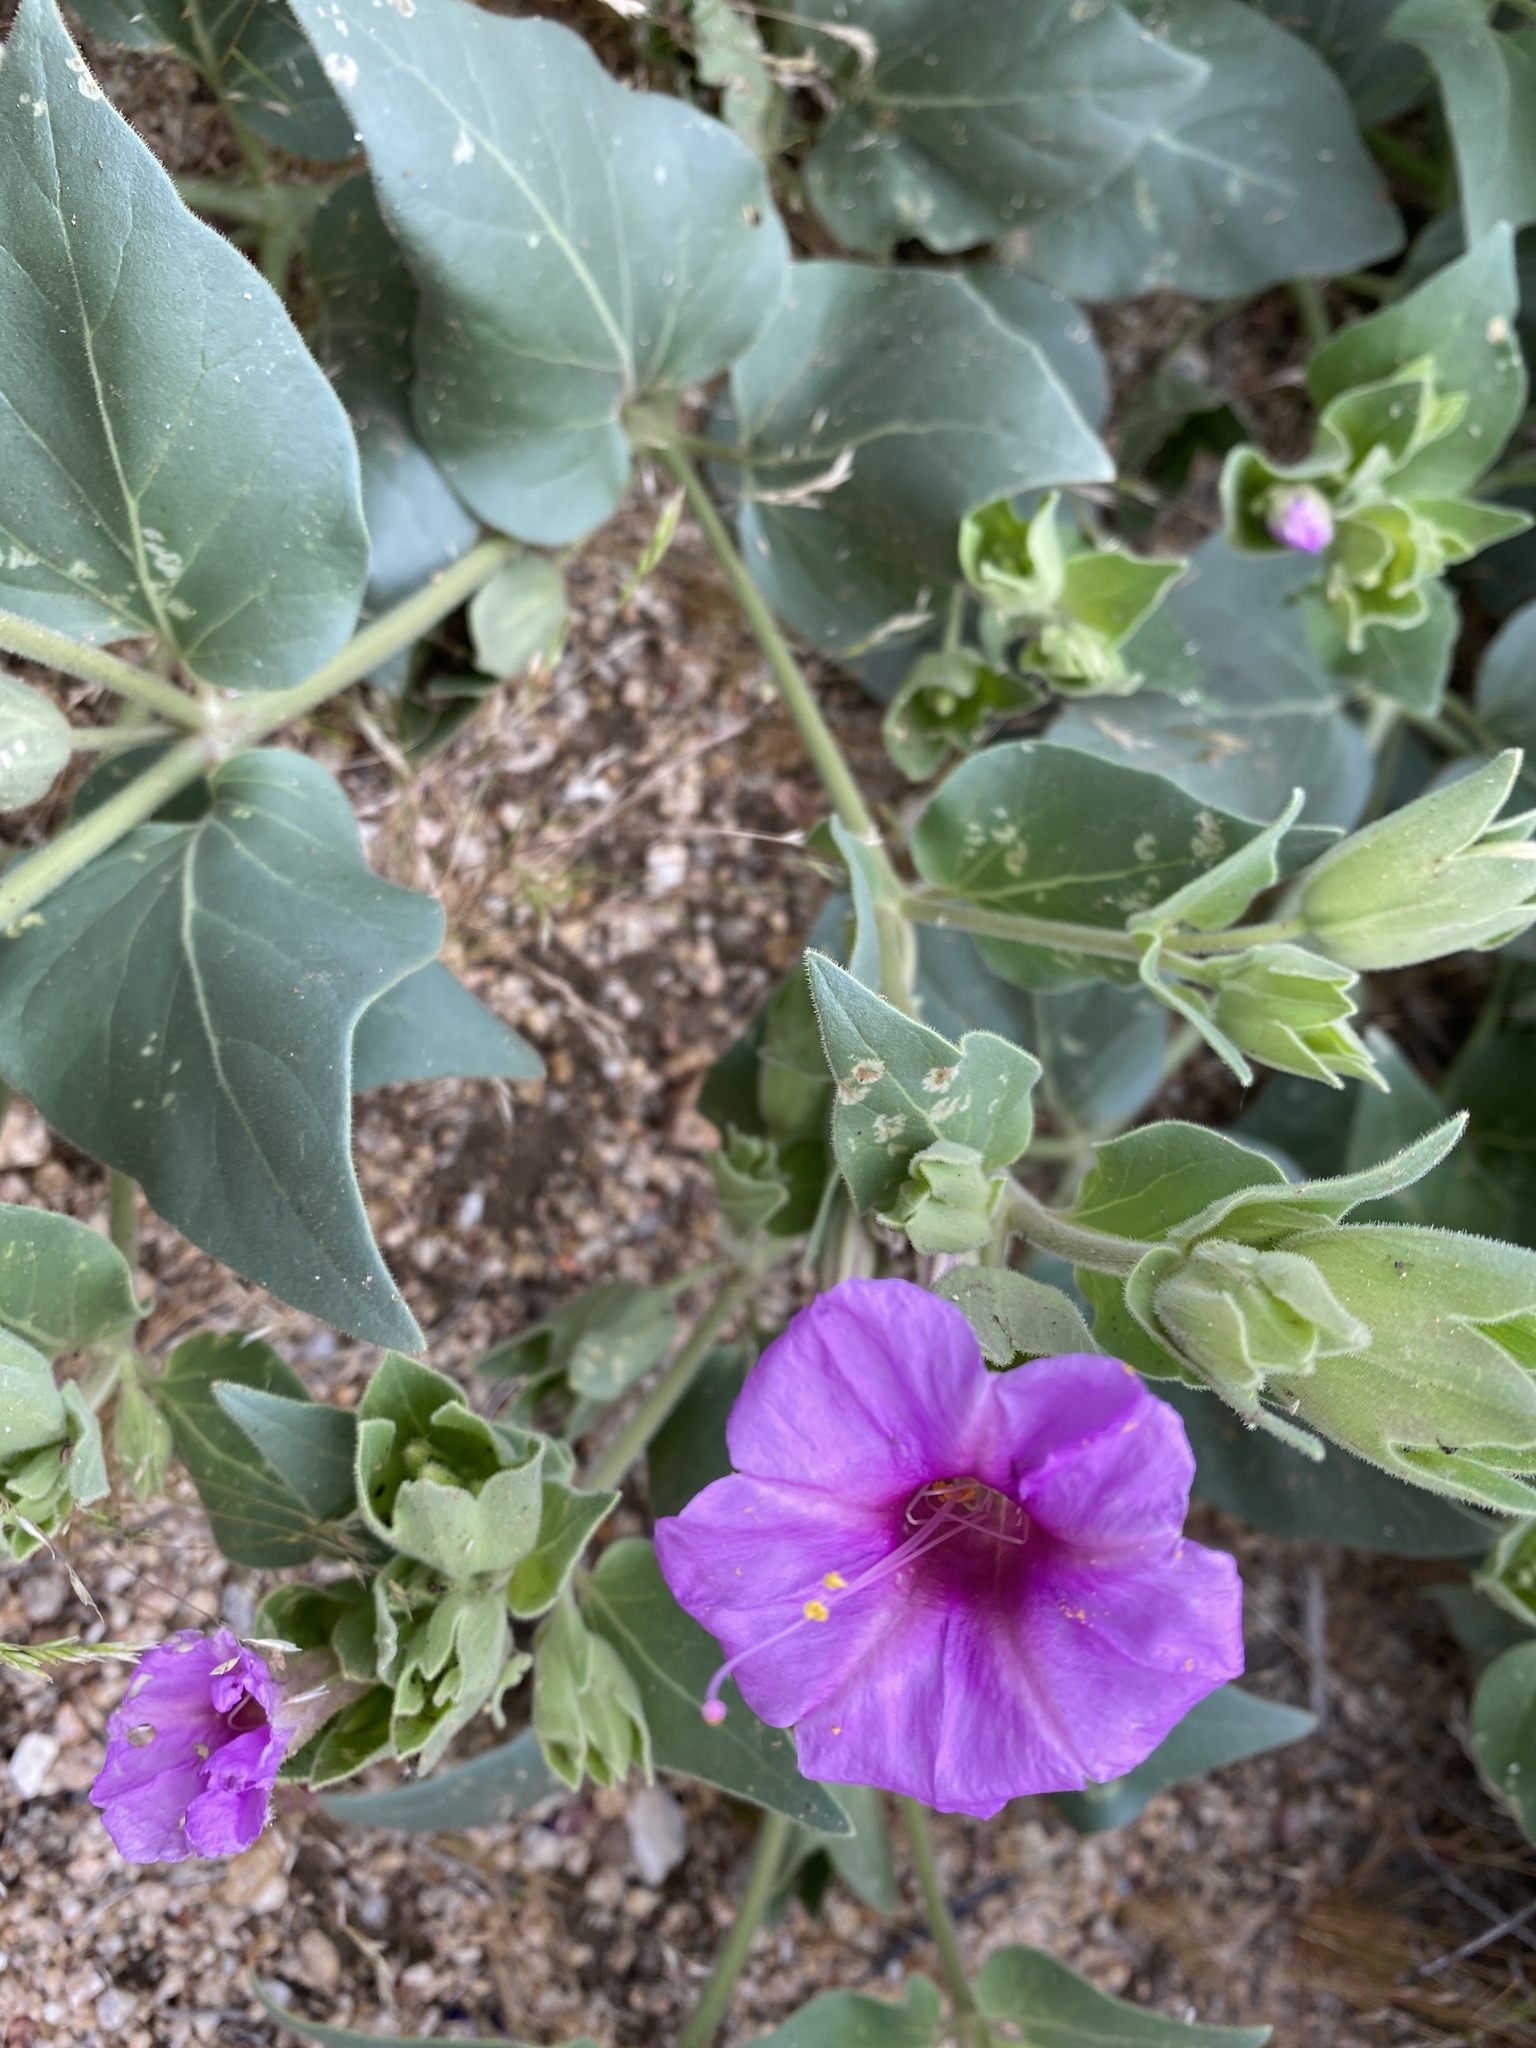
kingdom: Plantae
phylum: Tracheophyta
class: Magnoliopsida
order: Caryophyllales
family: Nyctaginaceae
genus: Mirabilis
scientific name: Mirabilis multiflora
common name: Froebel's four-o'clock
